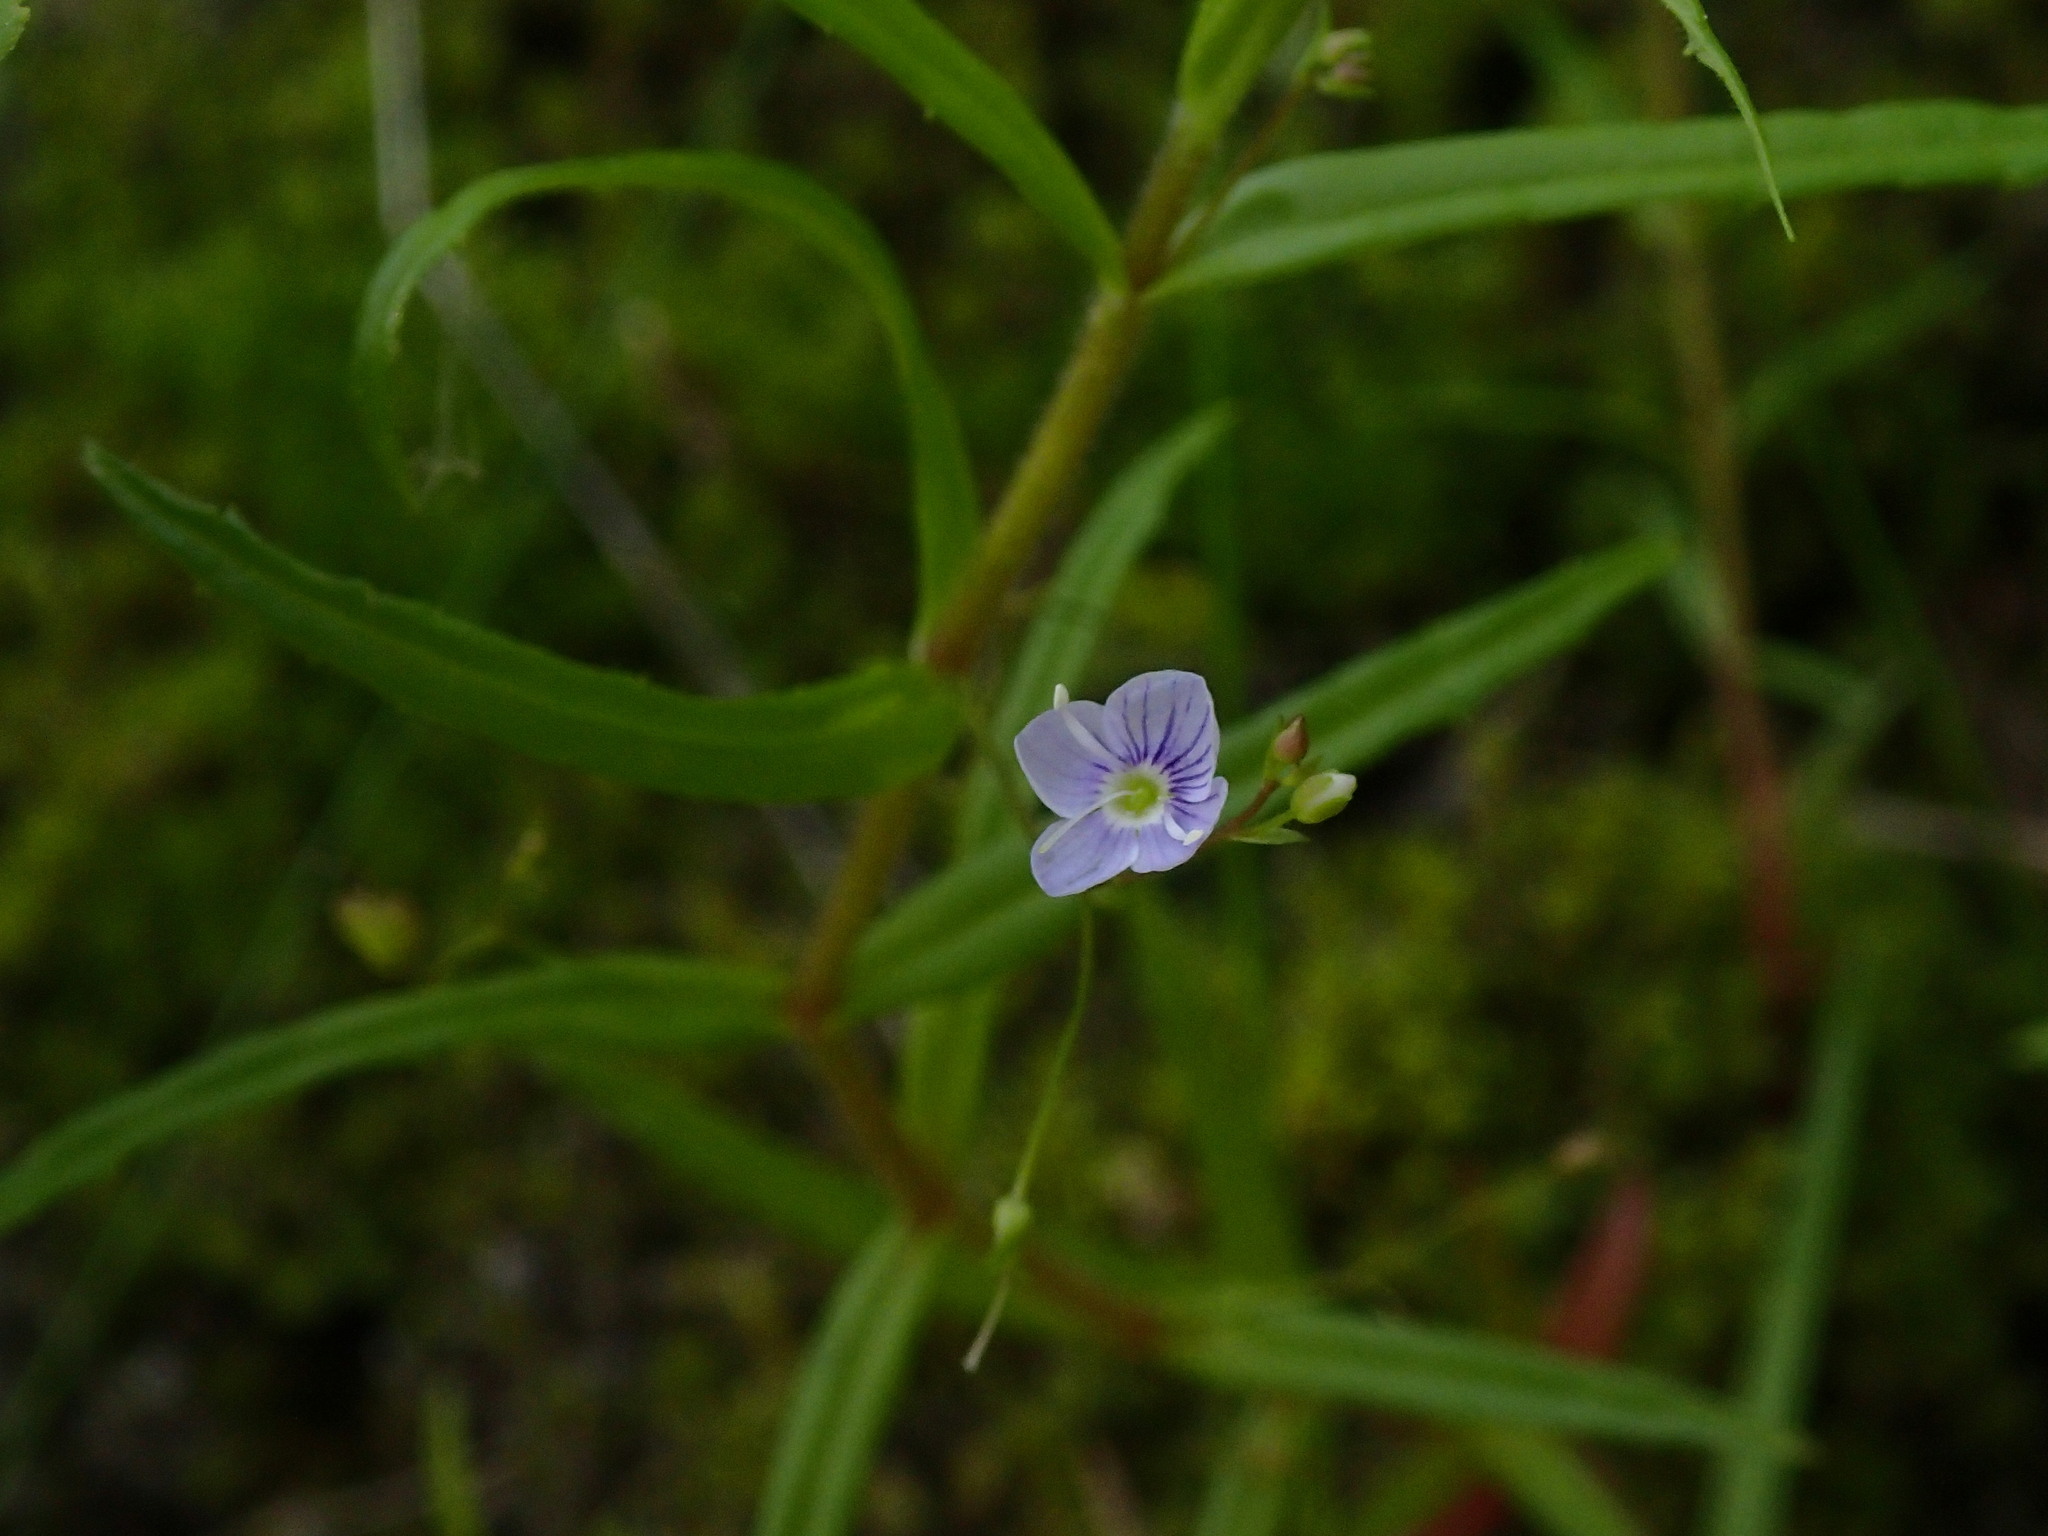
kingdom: Plantae
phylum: Tracheophyta
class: Magnoliopsida
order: Lamiales
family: Plantaginaceae
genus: Veronica
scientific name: Veronica scutellata
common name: Marsh speedwell
